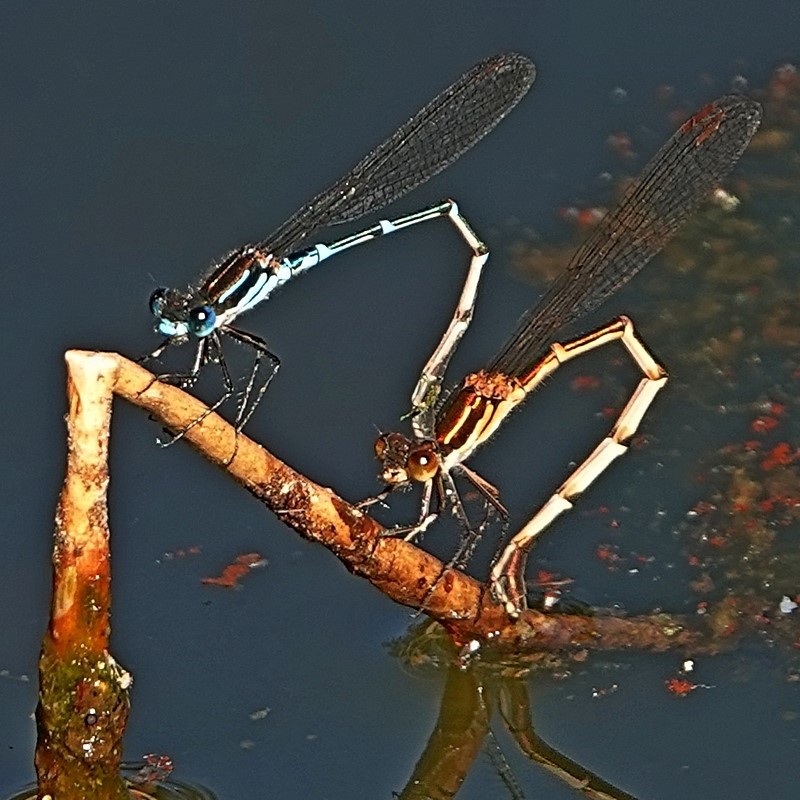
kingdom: Animalia
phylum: Arthropoda
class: Insecta
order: Odonata
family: Lestidae
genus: Austrolestes
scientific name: Austrolestes psyche
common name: Cup ringtail
